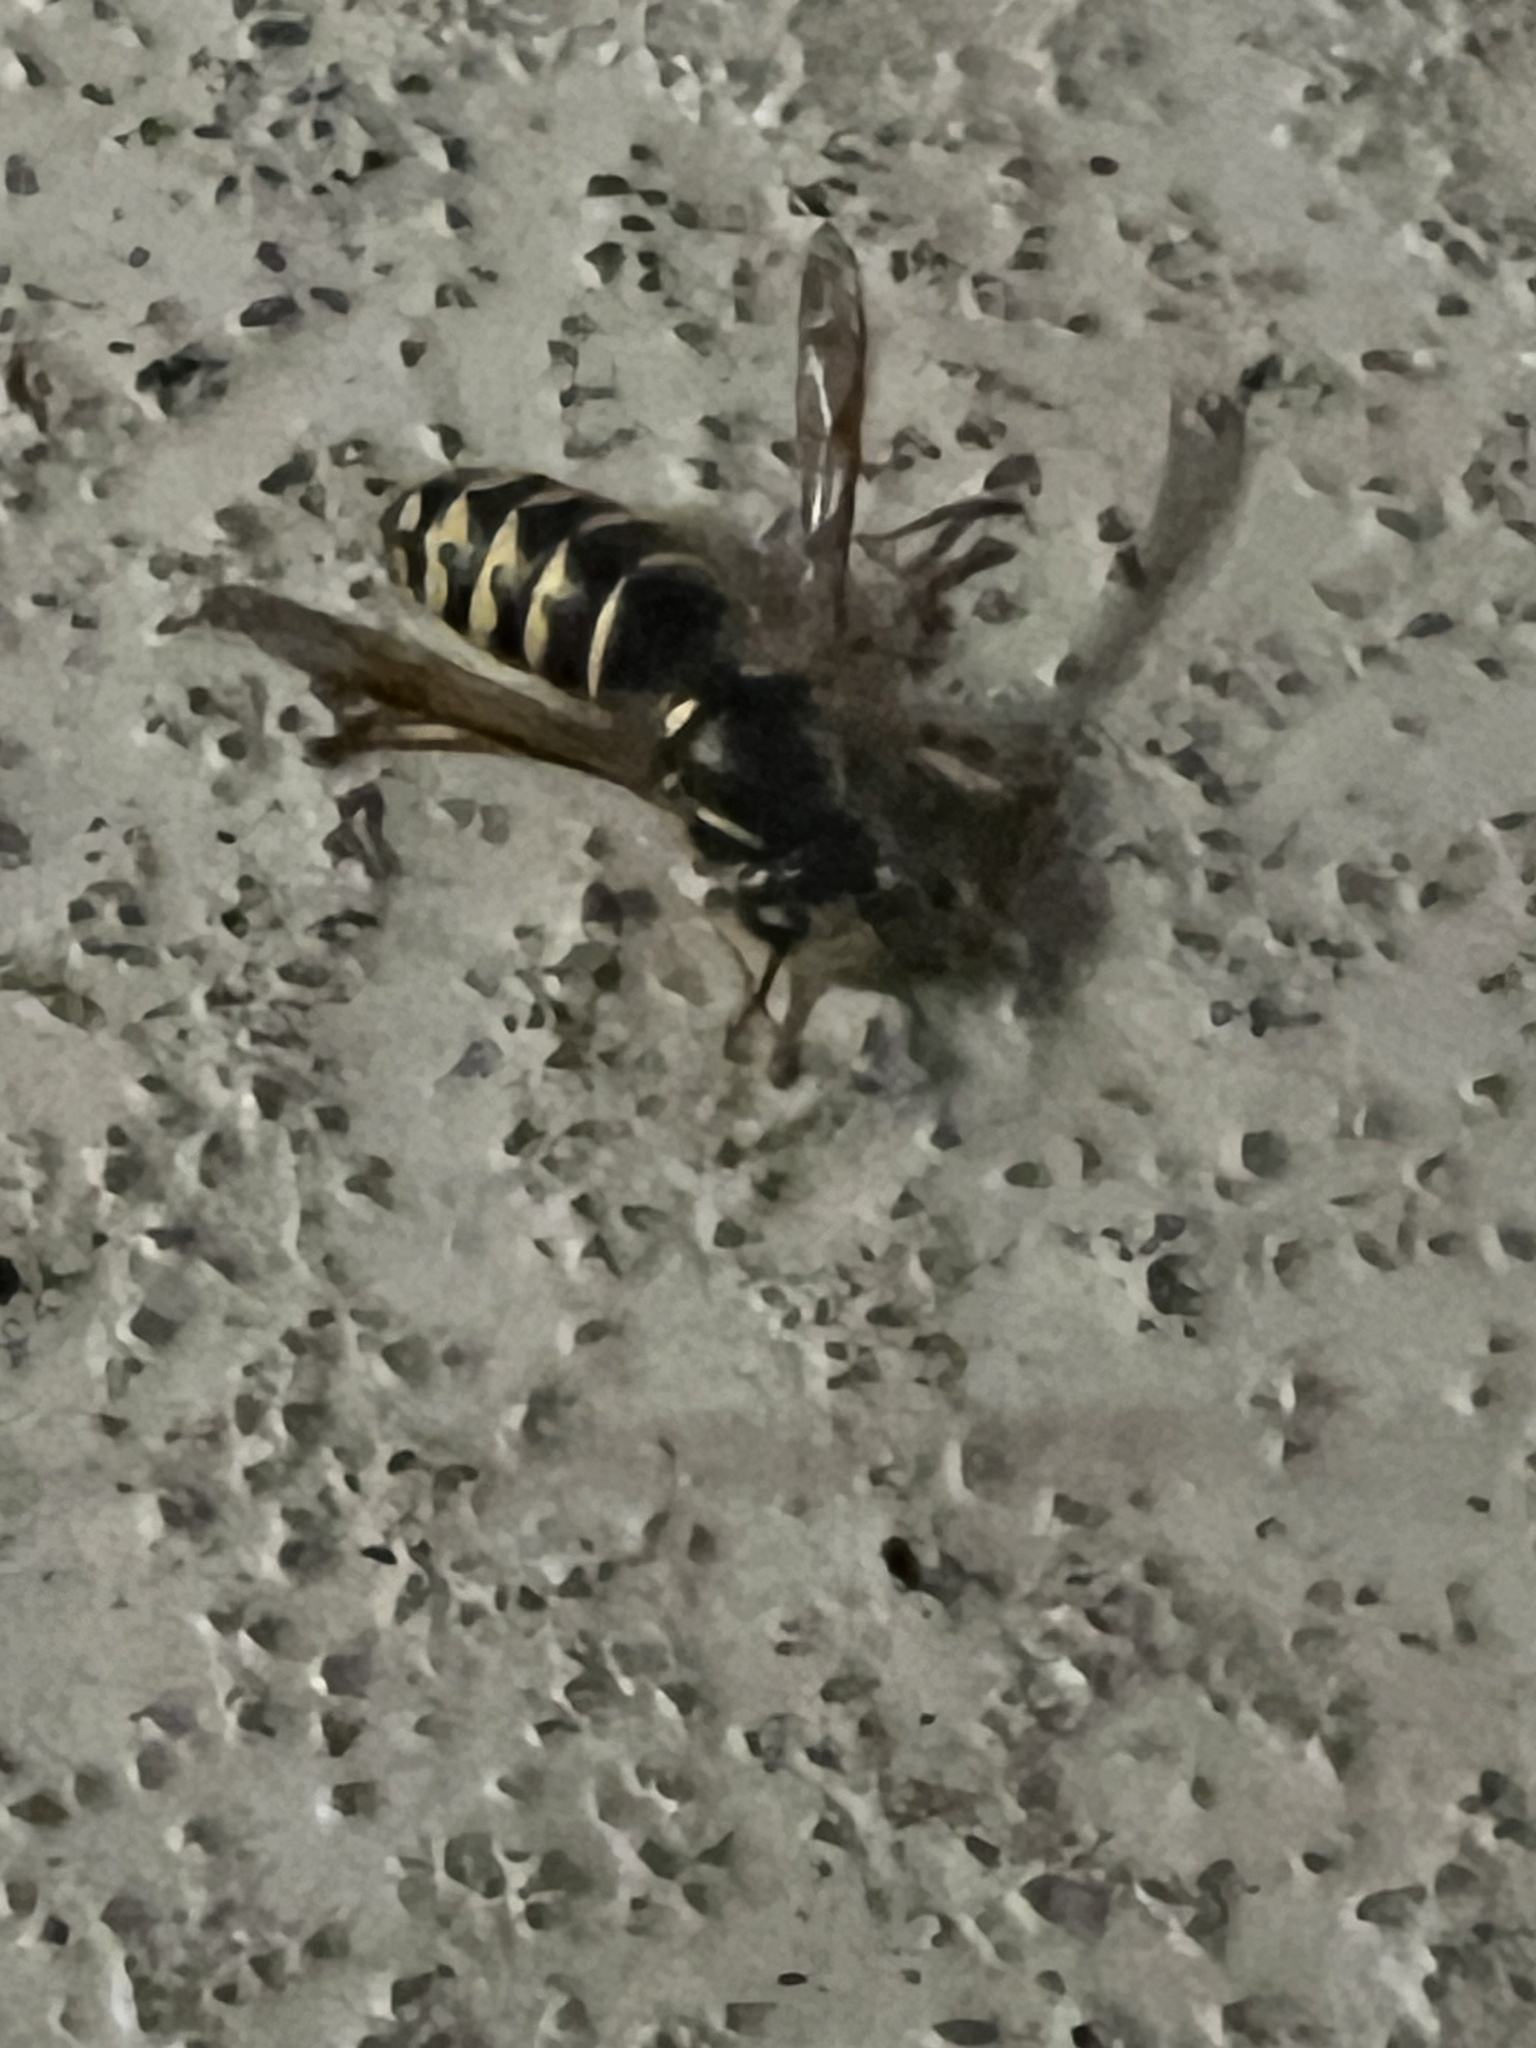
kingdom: Animalia
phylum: Arthropoda
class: Insecta
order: Hymenoptera
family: Vespidae
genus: Dolichovespula
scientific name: Dolichovespula arenaria
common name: Aerial yellowjacket
